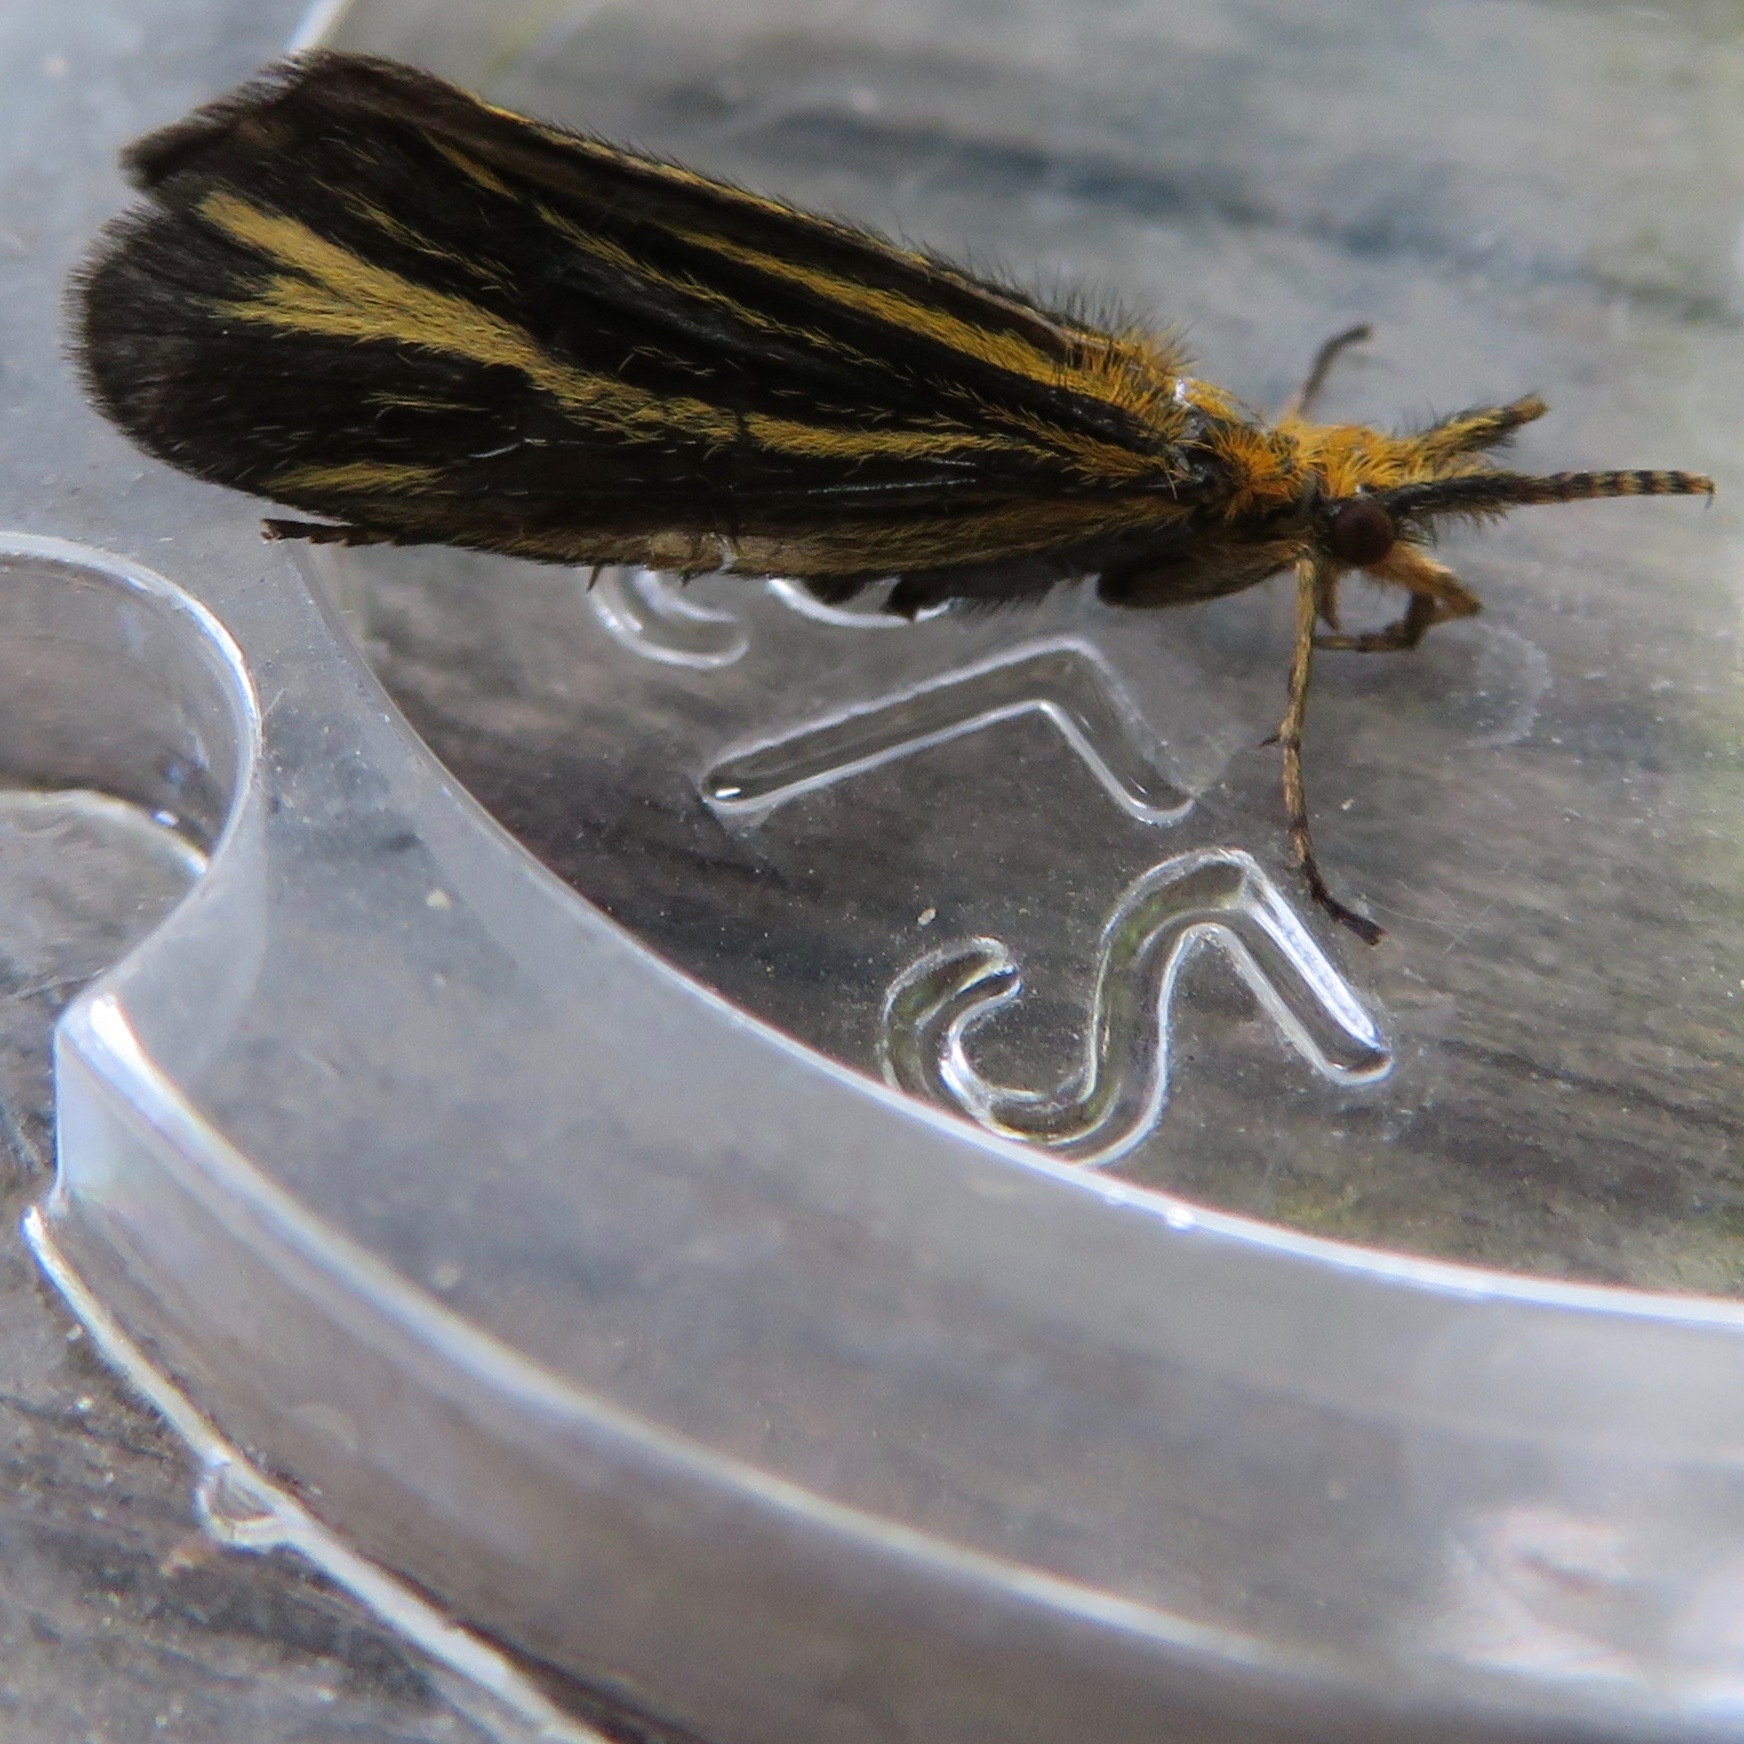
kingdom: Animalia
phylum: Arthropoda
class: Insecta
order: Trichoptera
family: Odontoceridae
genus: Nerophilus
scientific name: Nerophilus californicus
